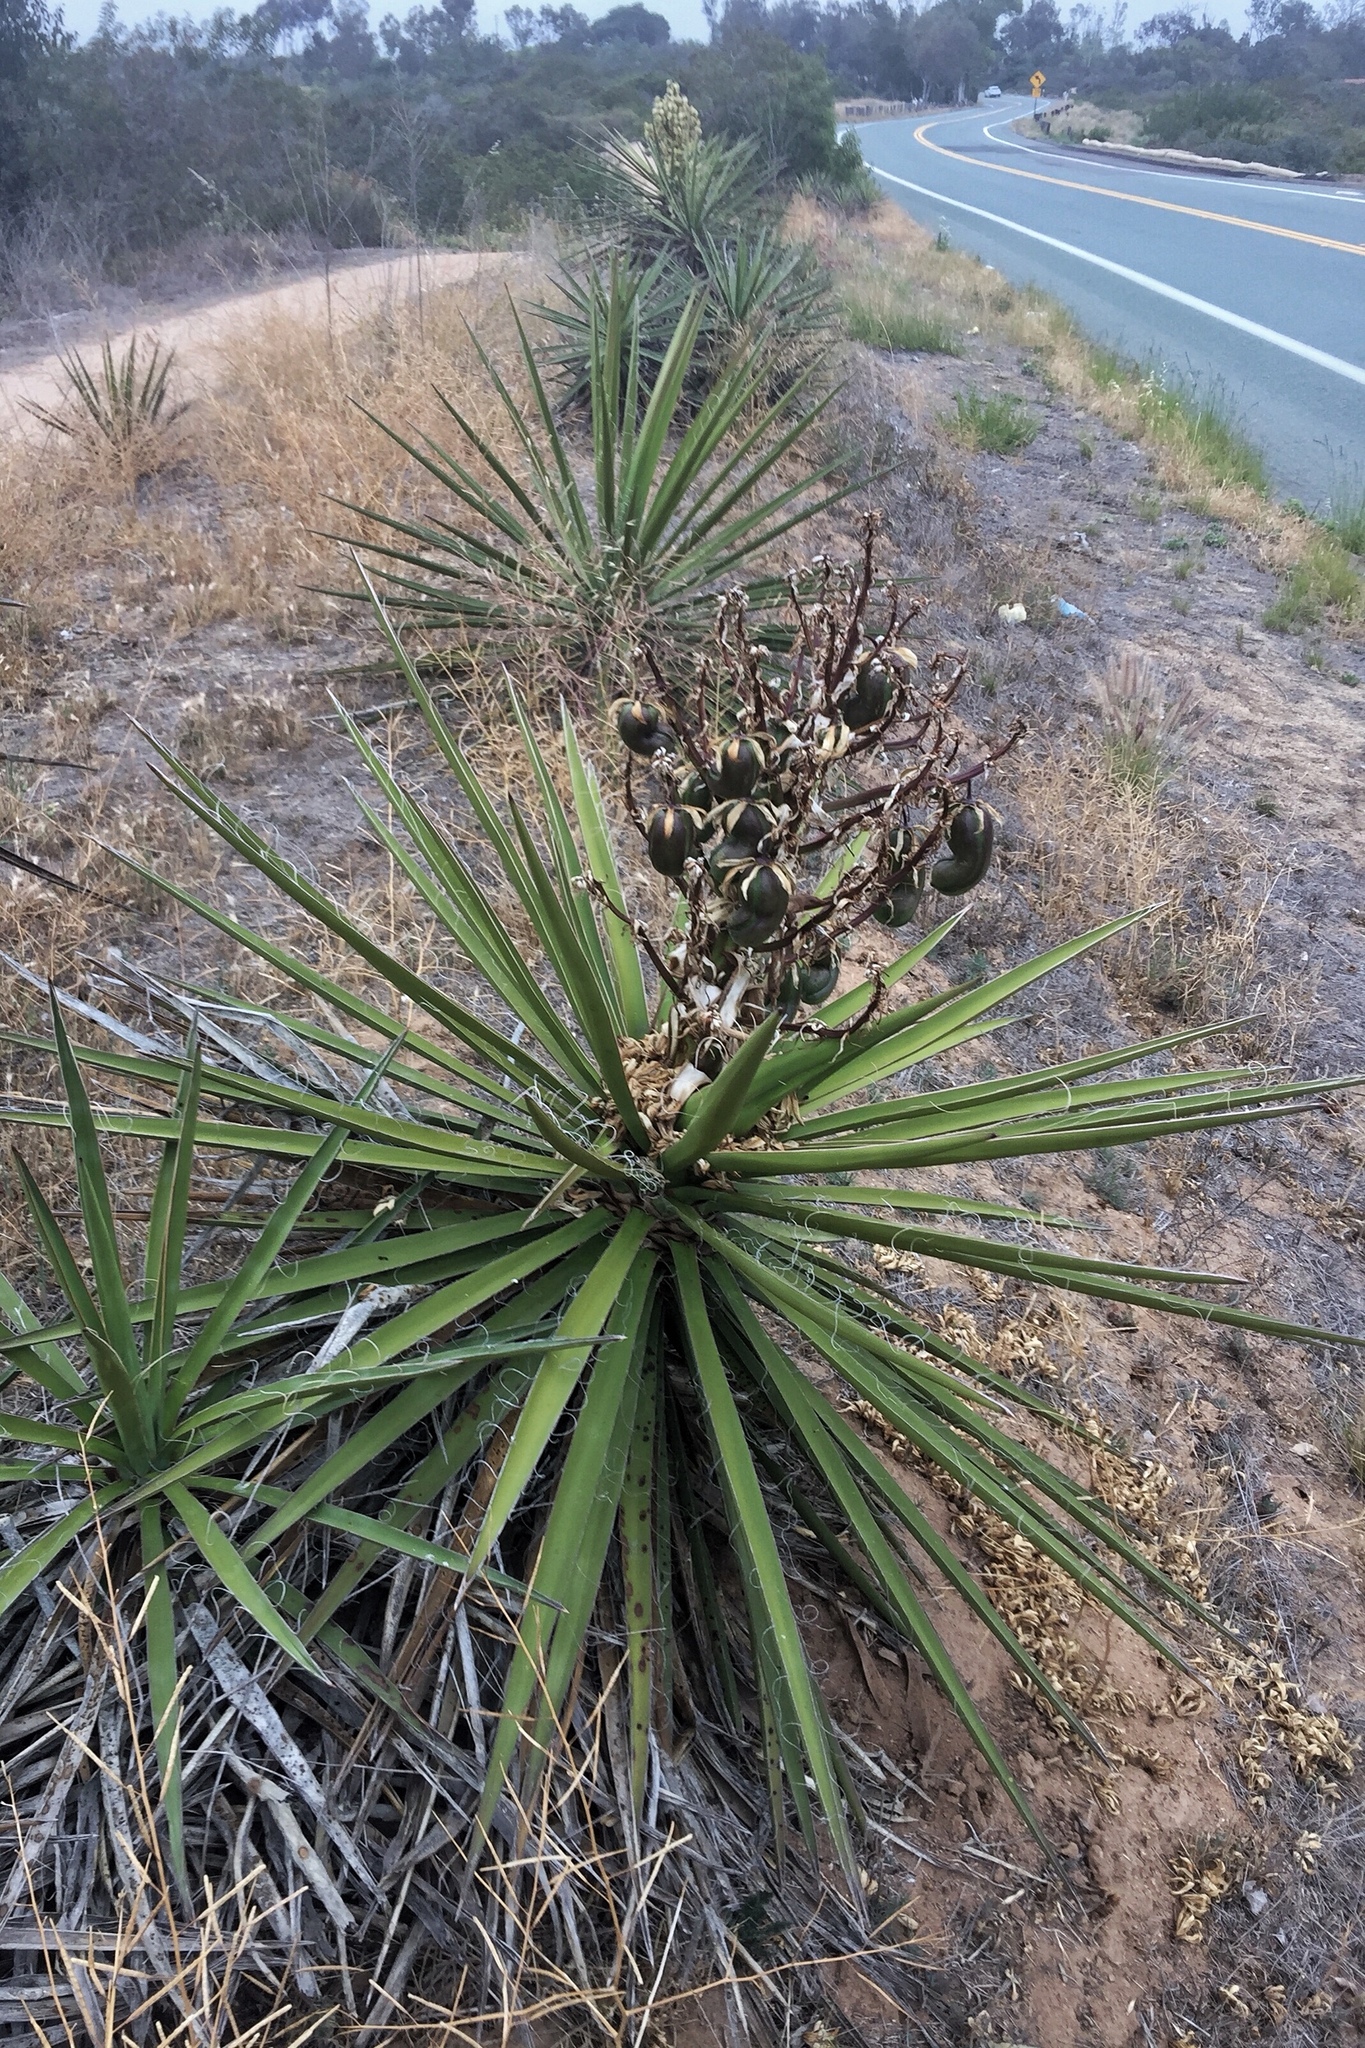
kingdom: Plantae
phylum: Tracheophyta
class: Liliopsida
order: Asparagales
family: Asparagaceae
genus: Yucca
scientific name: Yucca schidigera
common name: Mojave yucca
